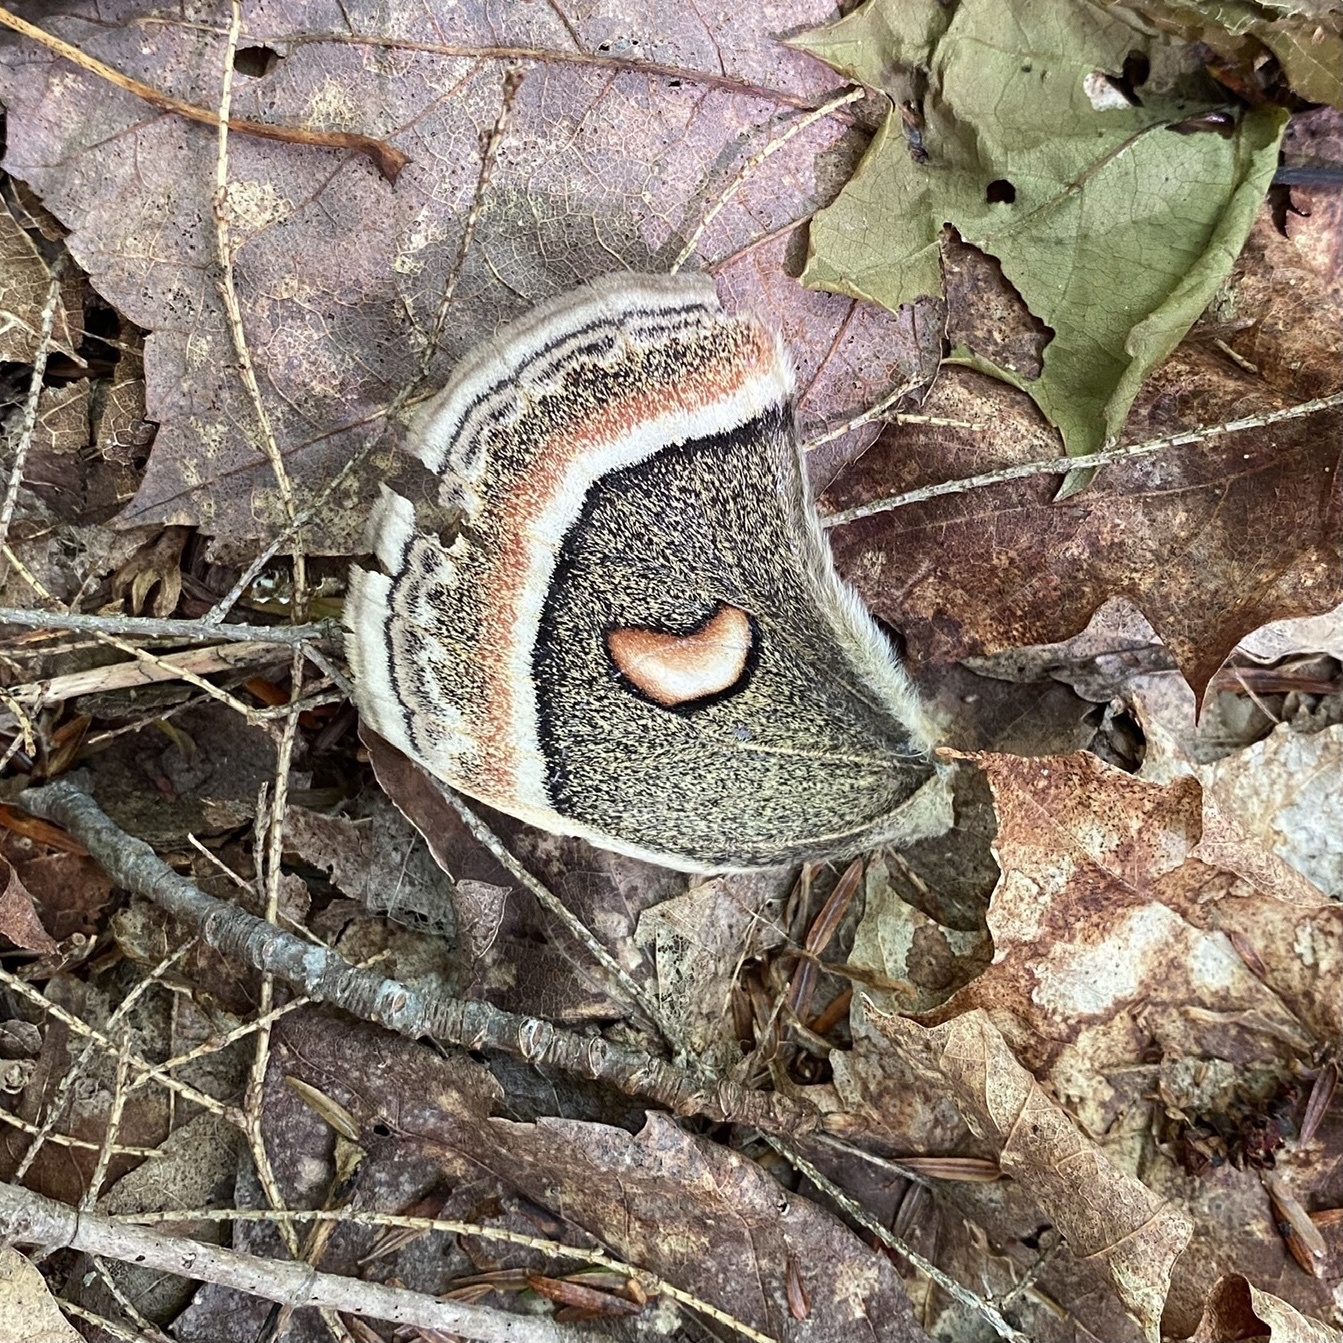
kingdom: Animalia
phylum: Arthropoda
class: Insecta
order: Lepidoptera
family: Saturniidae
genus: Hyalophora
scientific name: Hyalophora cecropia
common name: Cecropia silkmoth
